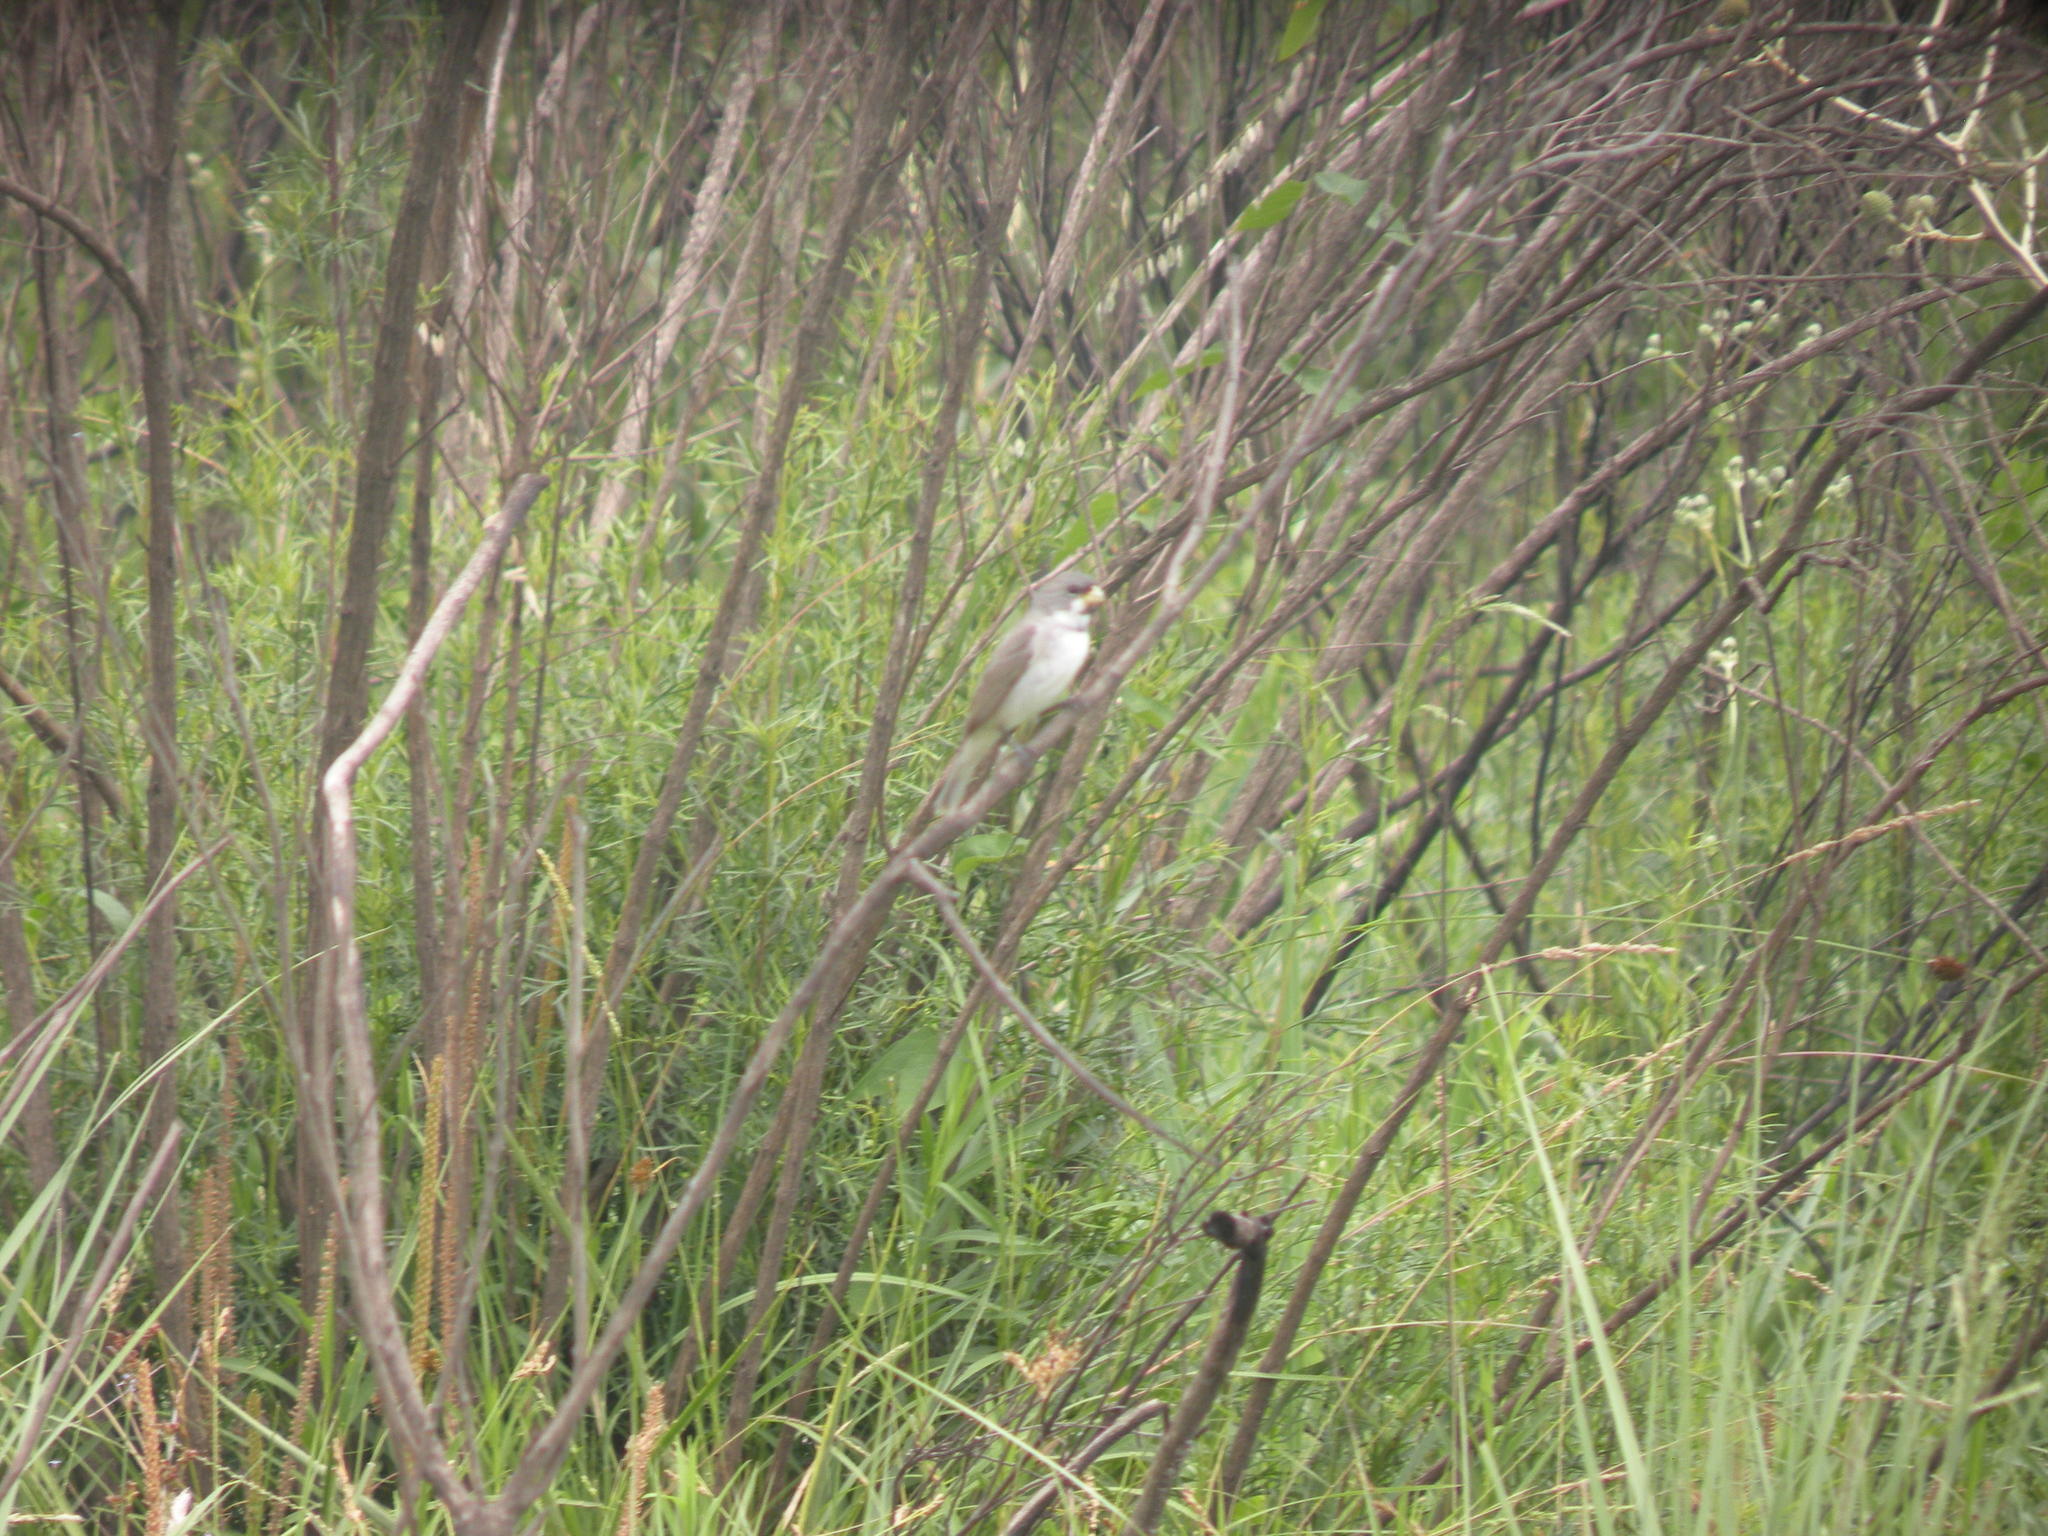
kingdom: Animalia
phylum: Chordata
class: Aves
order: Passeriformes
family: Thraupidae
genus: Sporophila
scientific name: Sporophila caerulescens
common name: Double-collared seedeater
